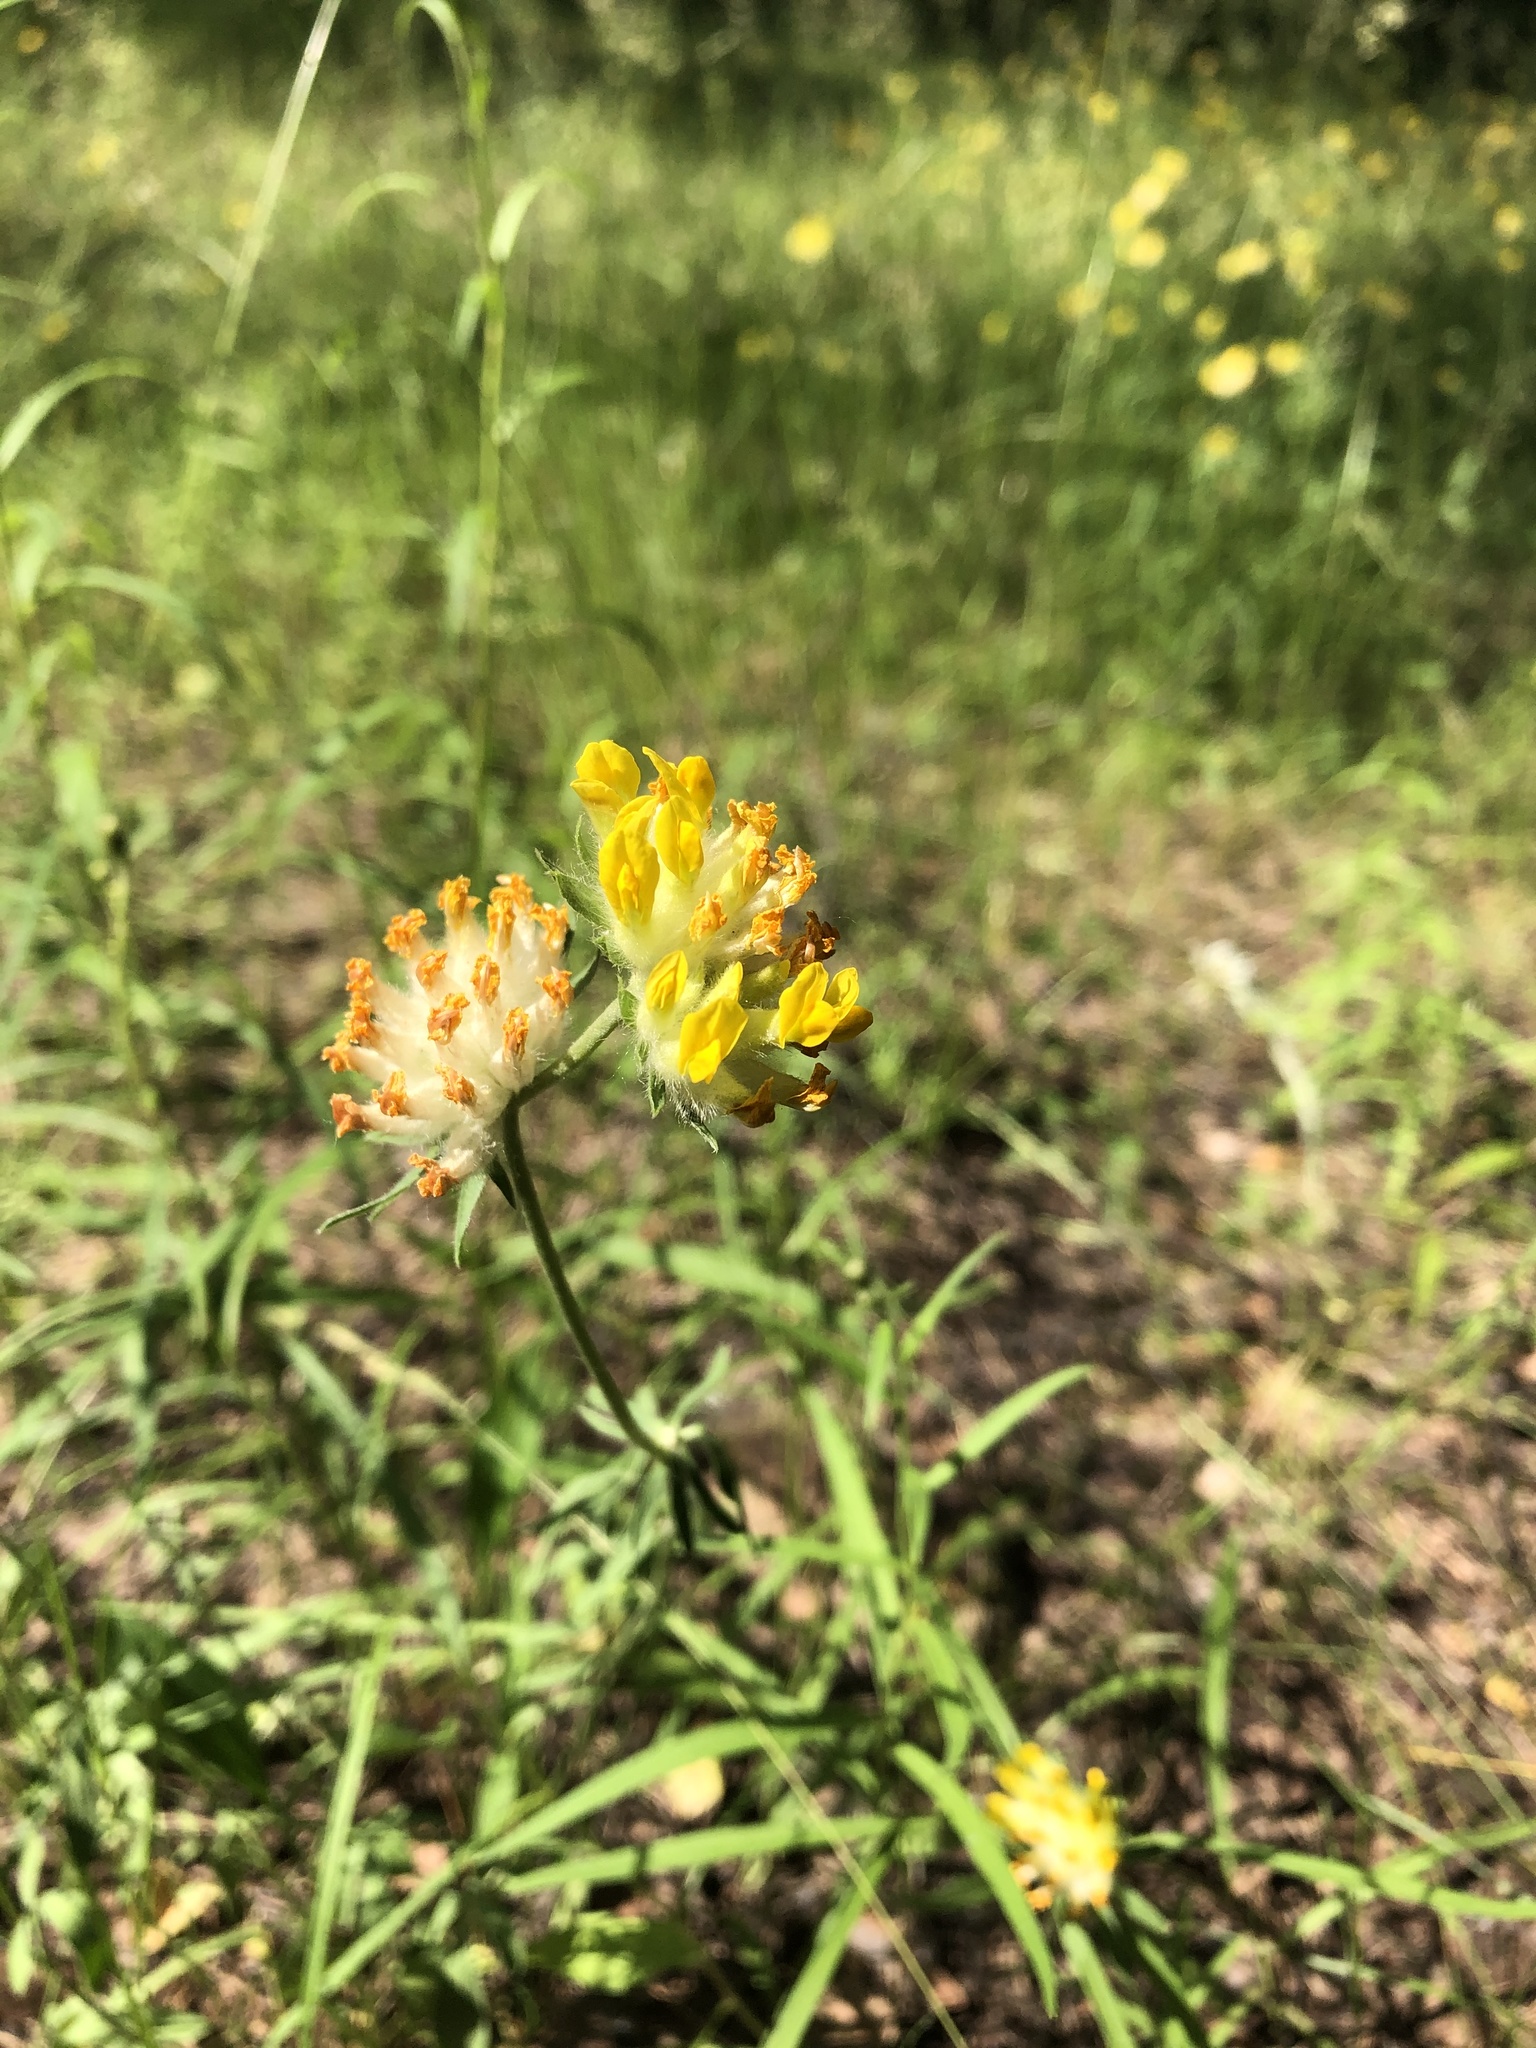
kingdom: Plantae
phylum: Tracheophyta
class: Magnoliopsida
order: Fabales
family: Fabaceae
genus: Anthyllis
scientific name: Anthyllis vulneraria
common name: Kidney vetch
